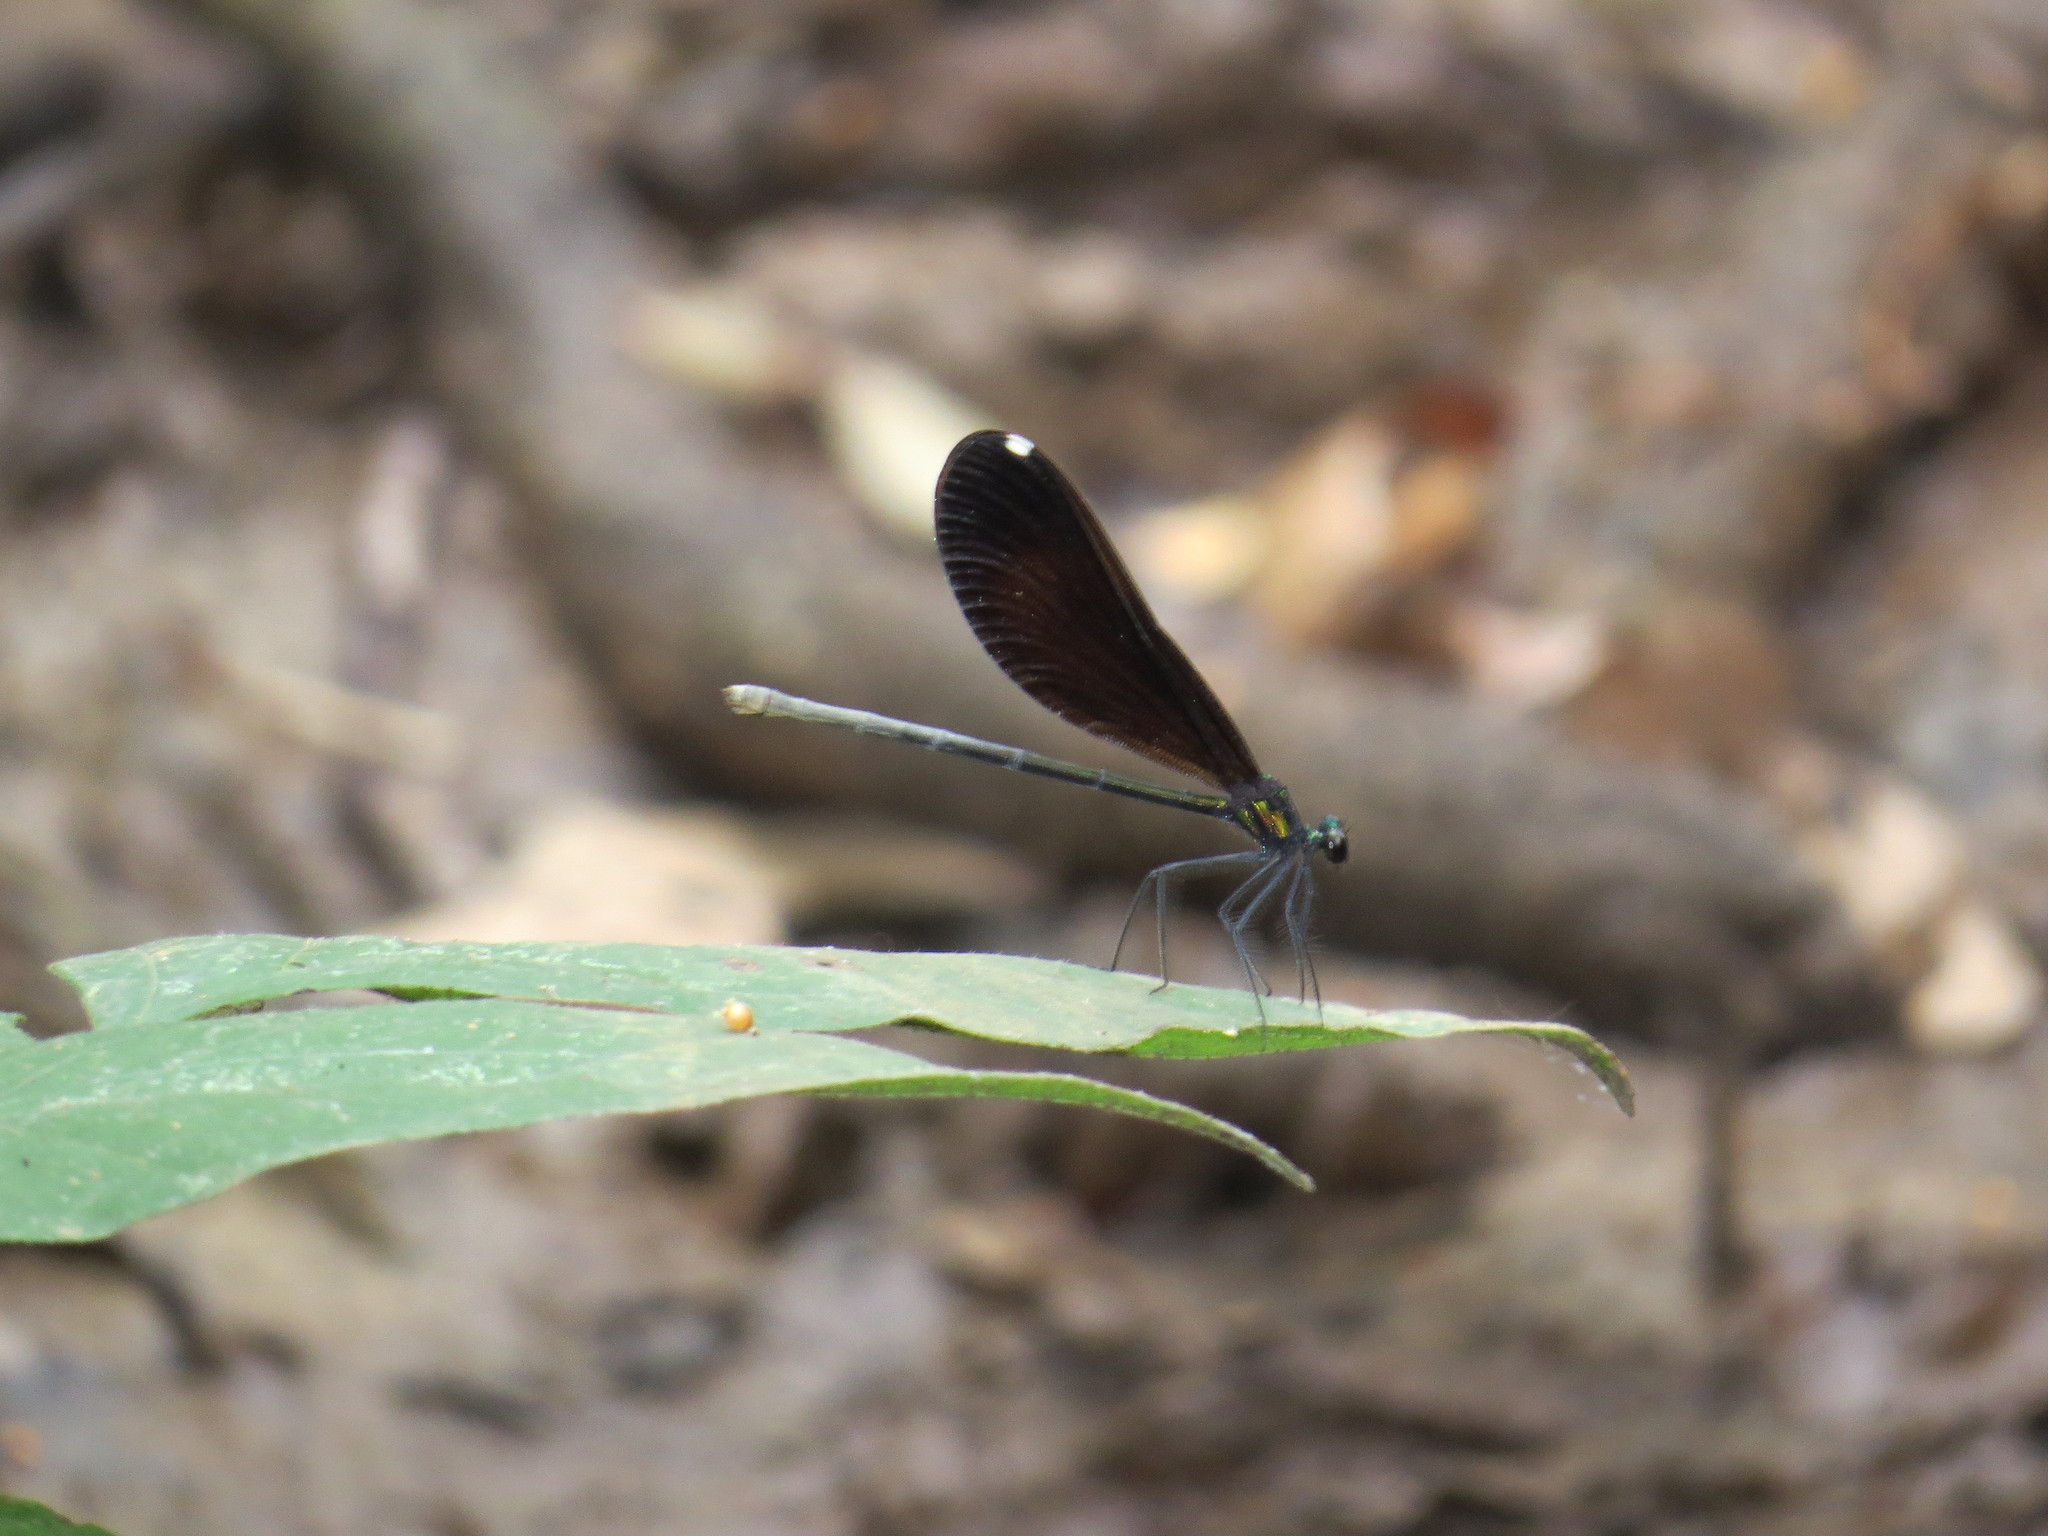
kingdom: Animalia
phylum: Arthropoda
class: Insecta
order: Odonata
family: Calopterygidae
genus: Calopteryx
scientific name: Calopteryx maculata
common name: Ebony jewelwing
